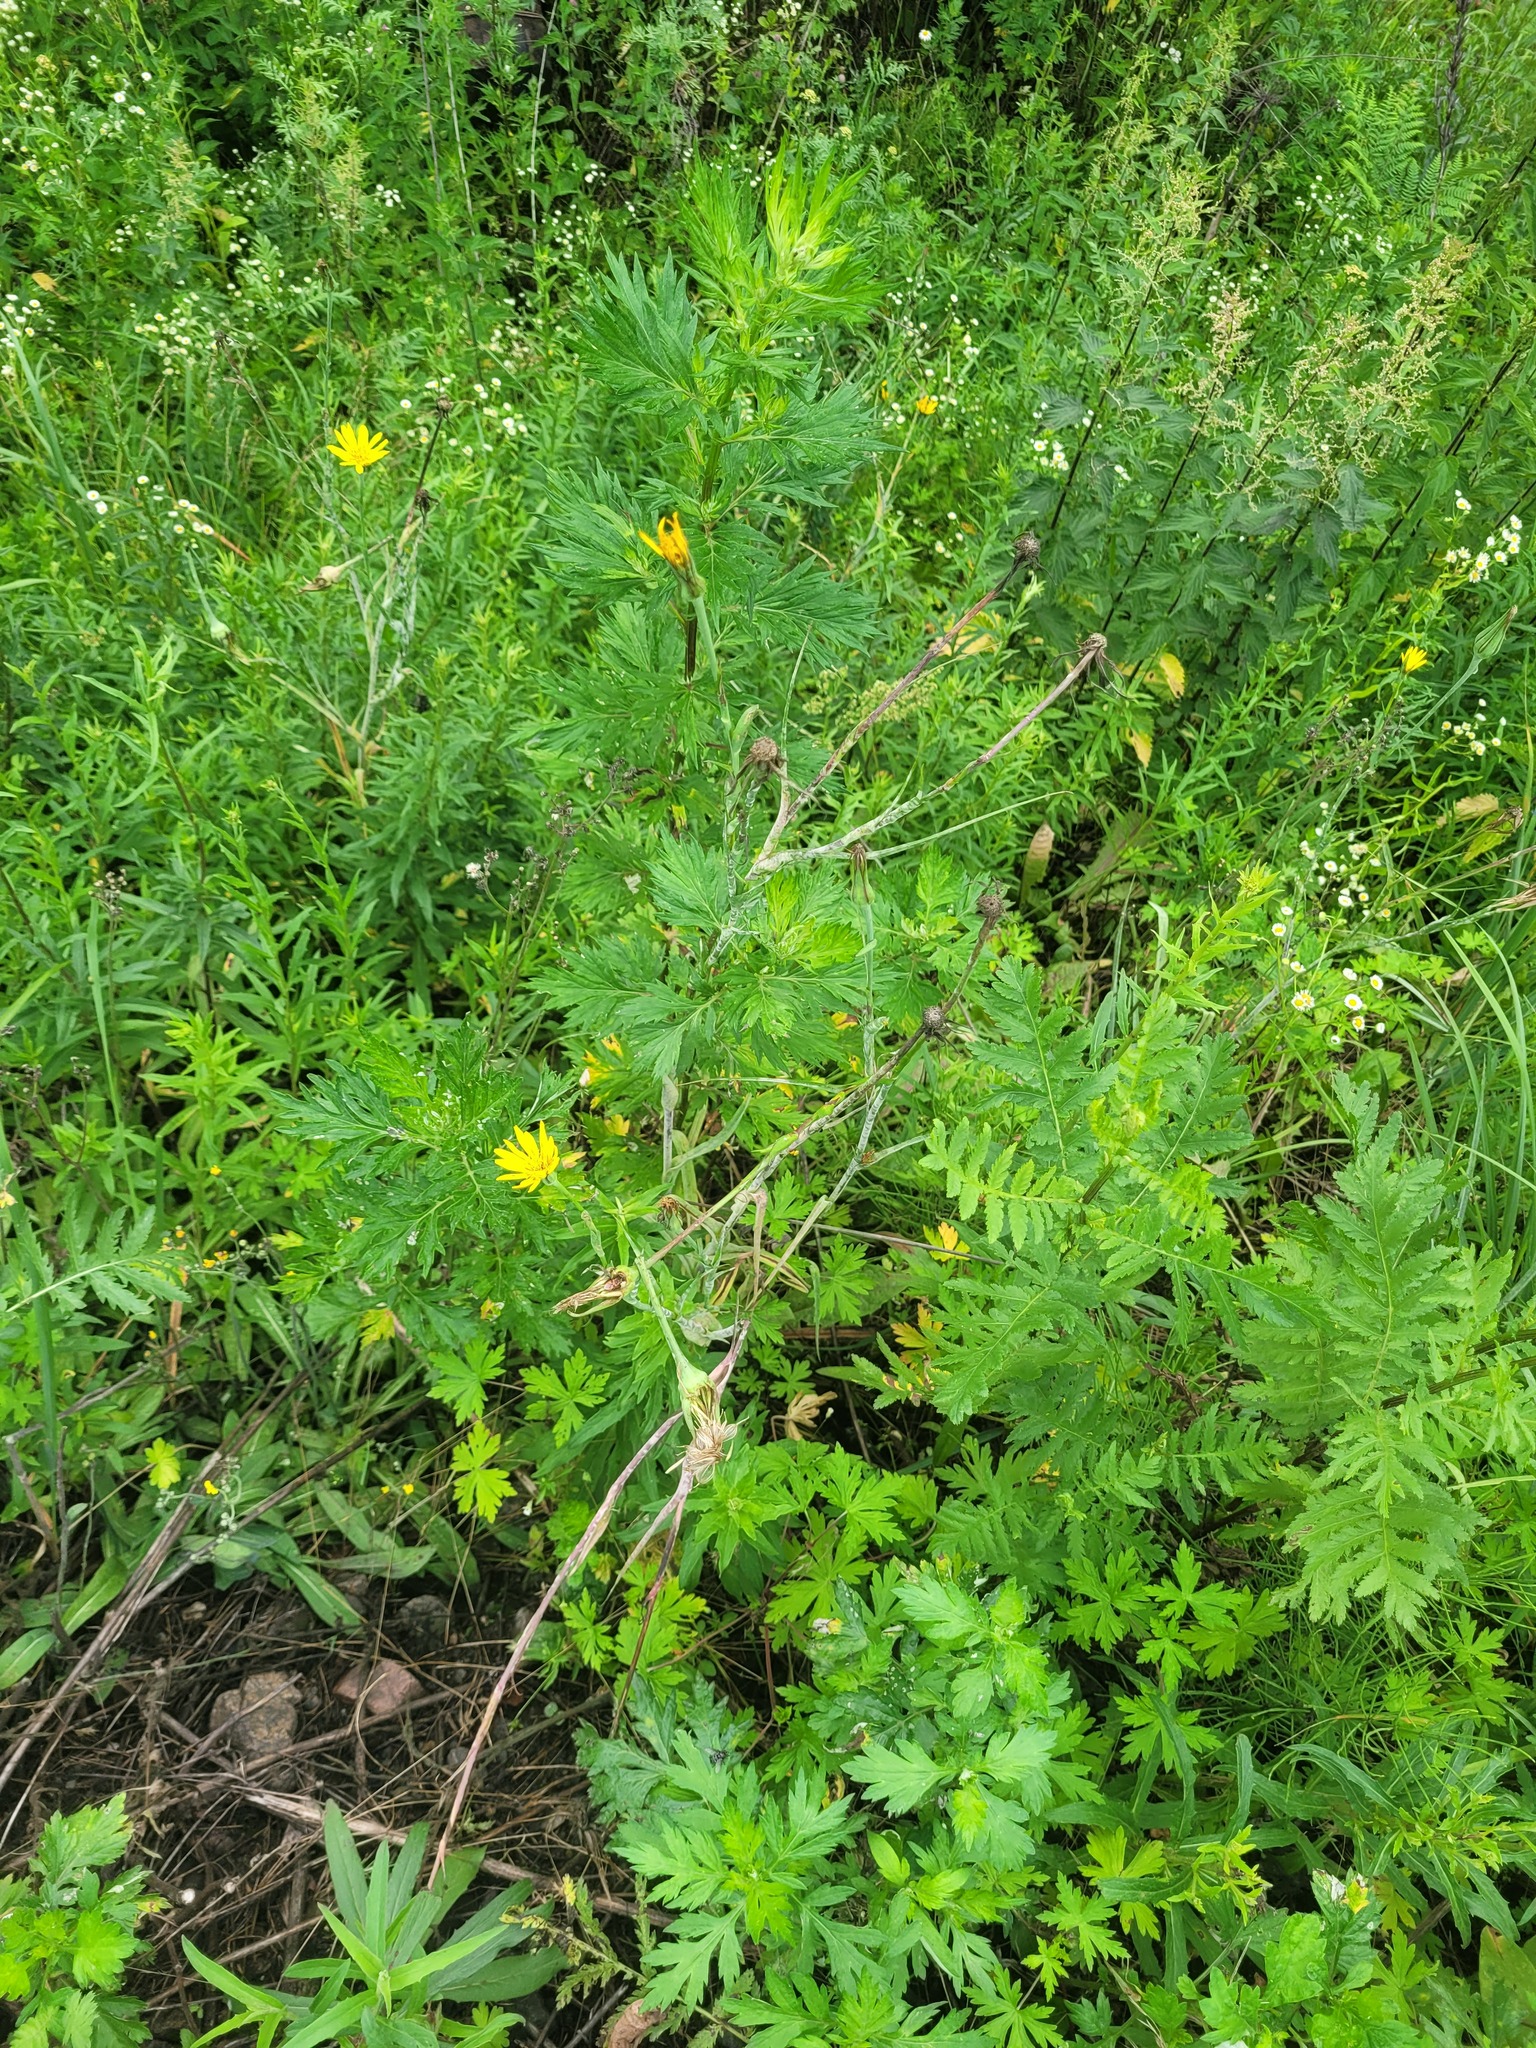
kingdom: Plantae
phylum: Tracheophyta
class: Magnoliopsida
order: Asterales
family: Asteraceae
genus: Artemisia
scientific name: Artemisia vulgaris
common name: Mugwort
